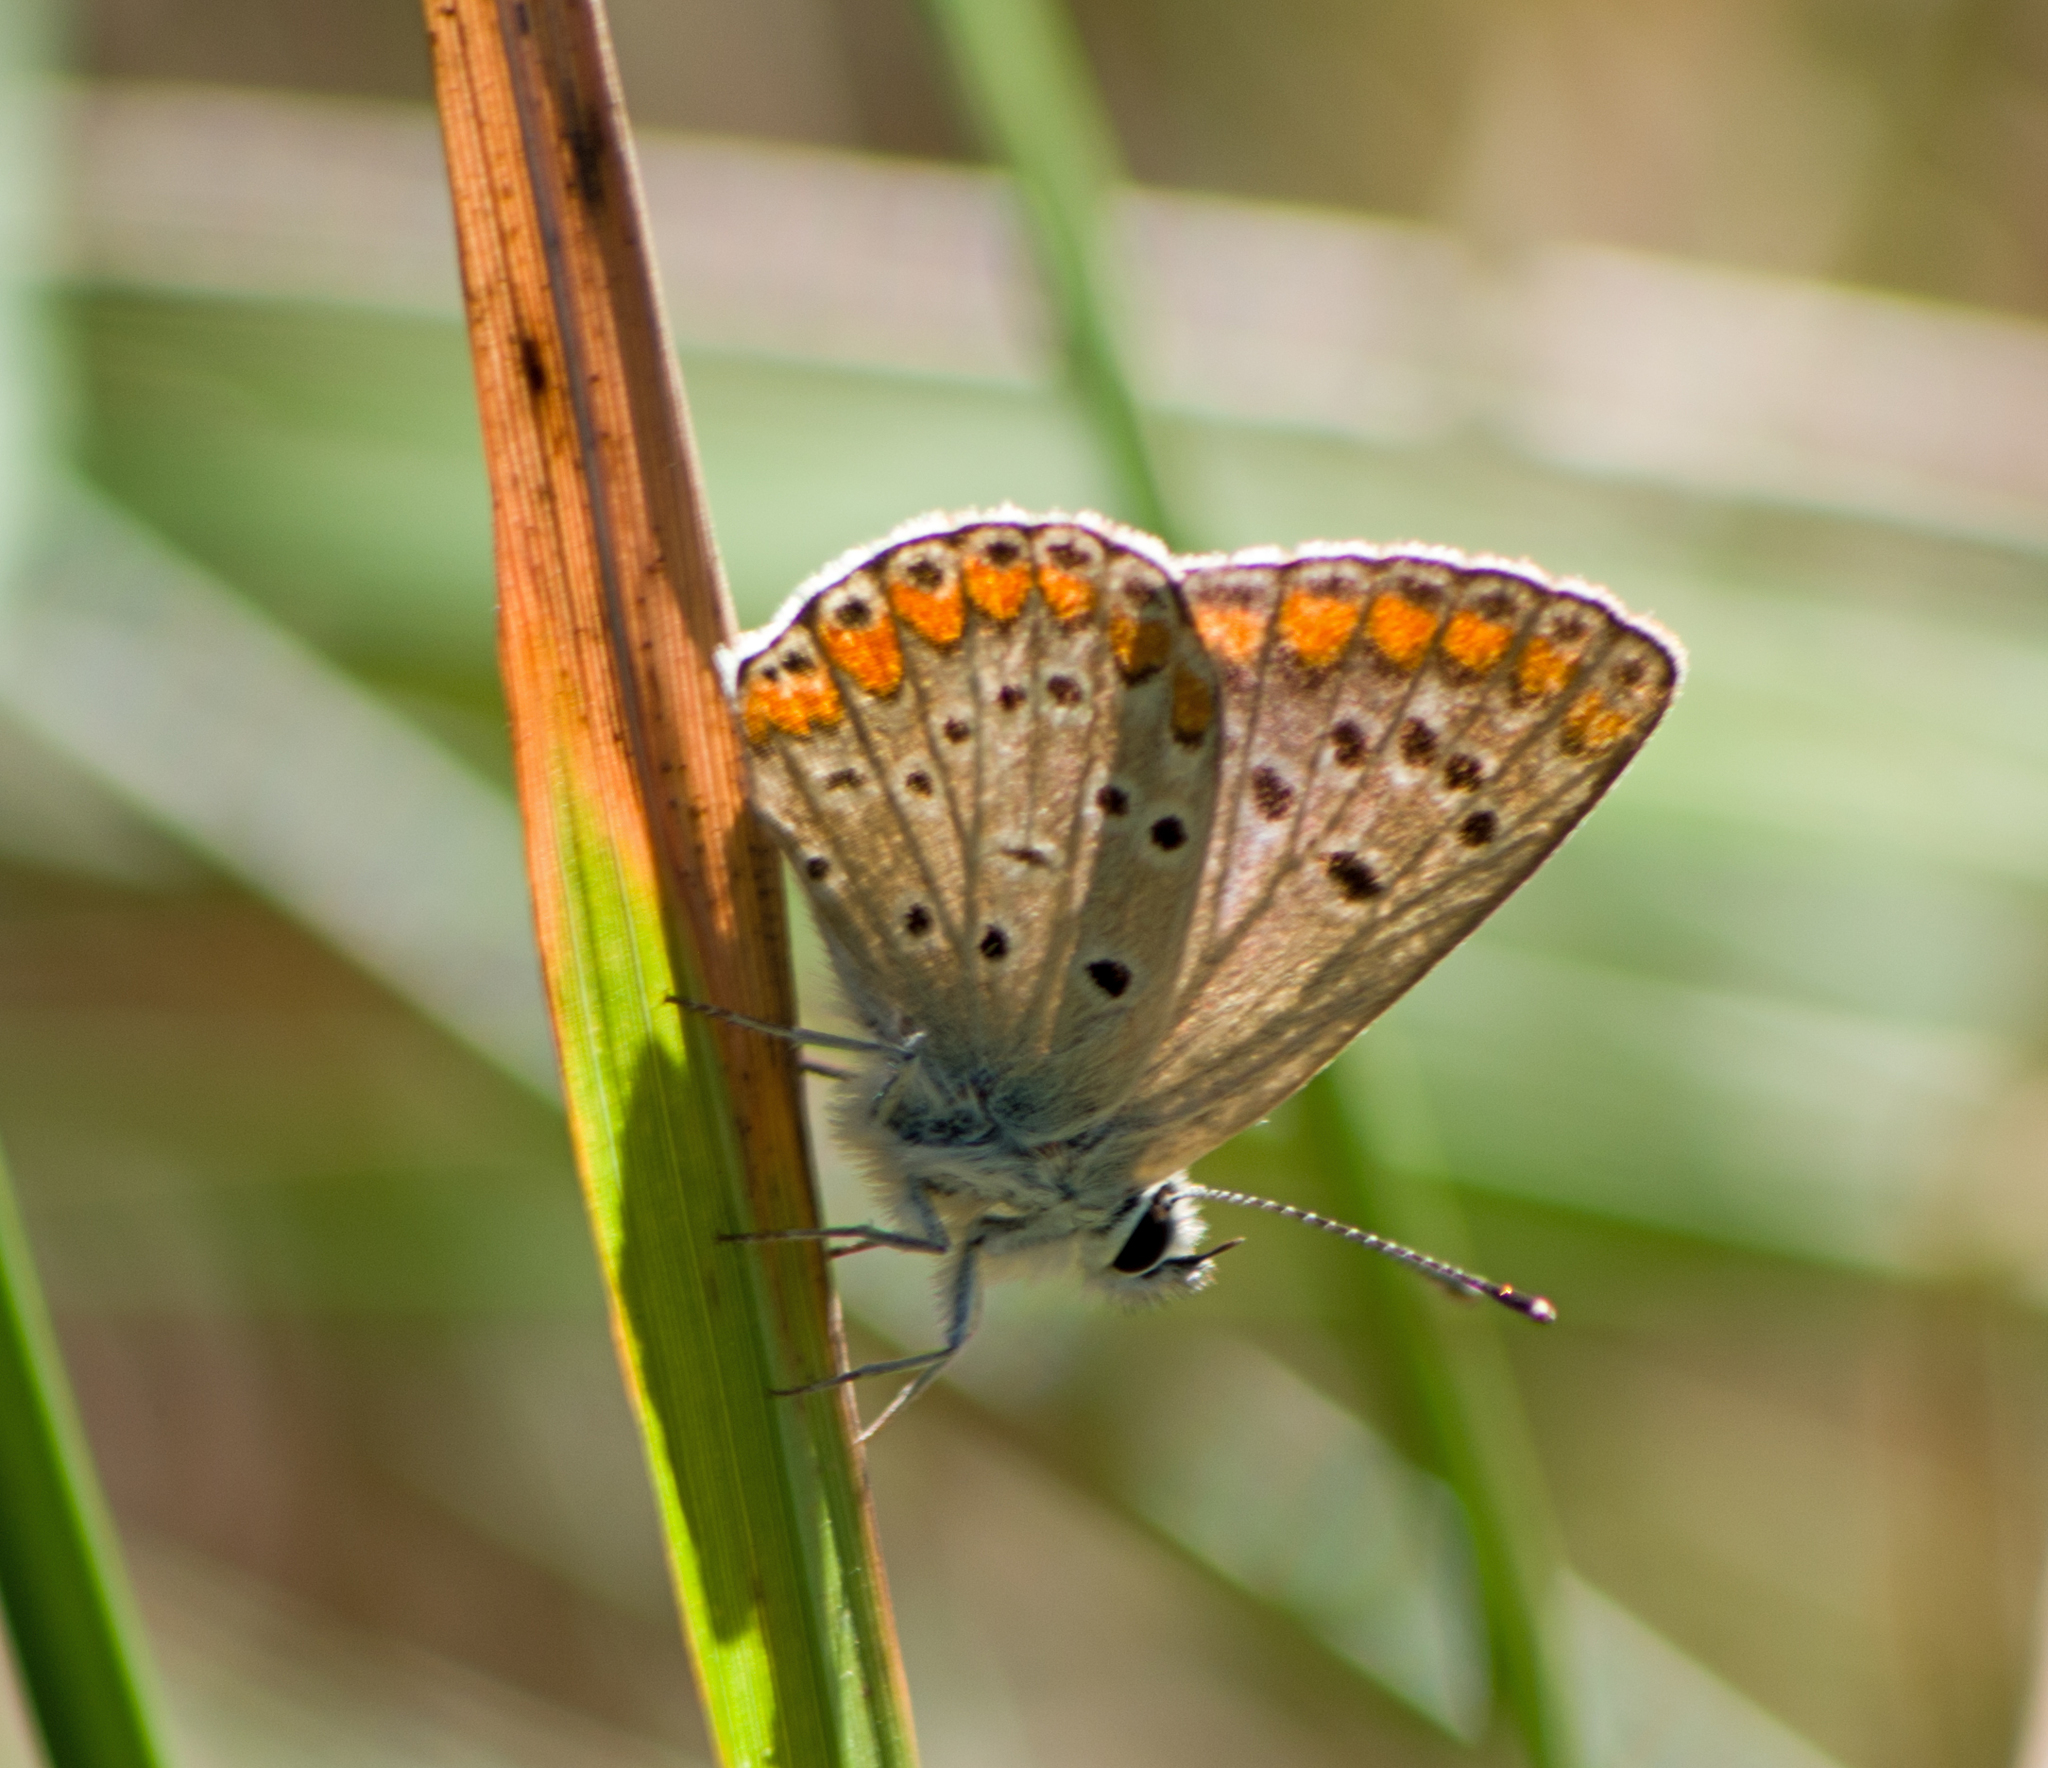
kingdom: Animalia
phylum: Arthropoda
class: Insecta
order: Lepidoptera
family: Lycaenidae
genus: Aricia
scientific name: Aricia agestis
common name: Brown argus
